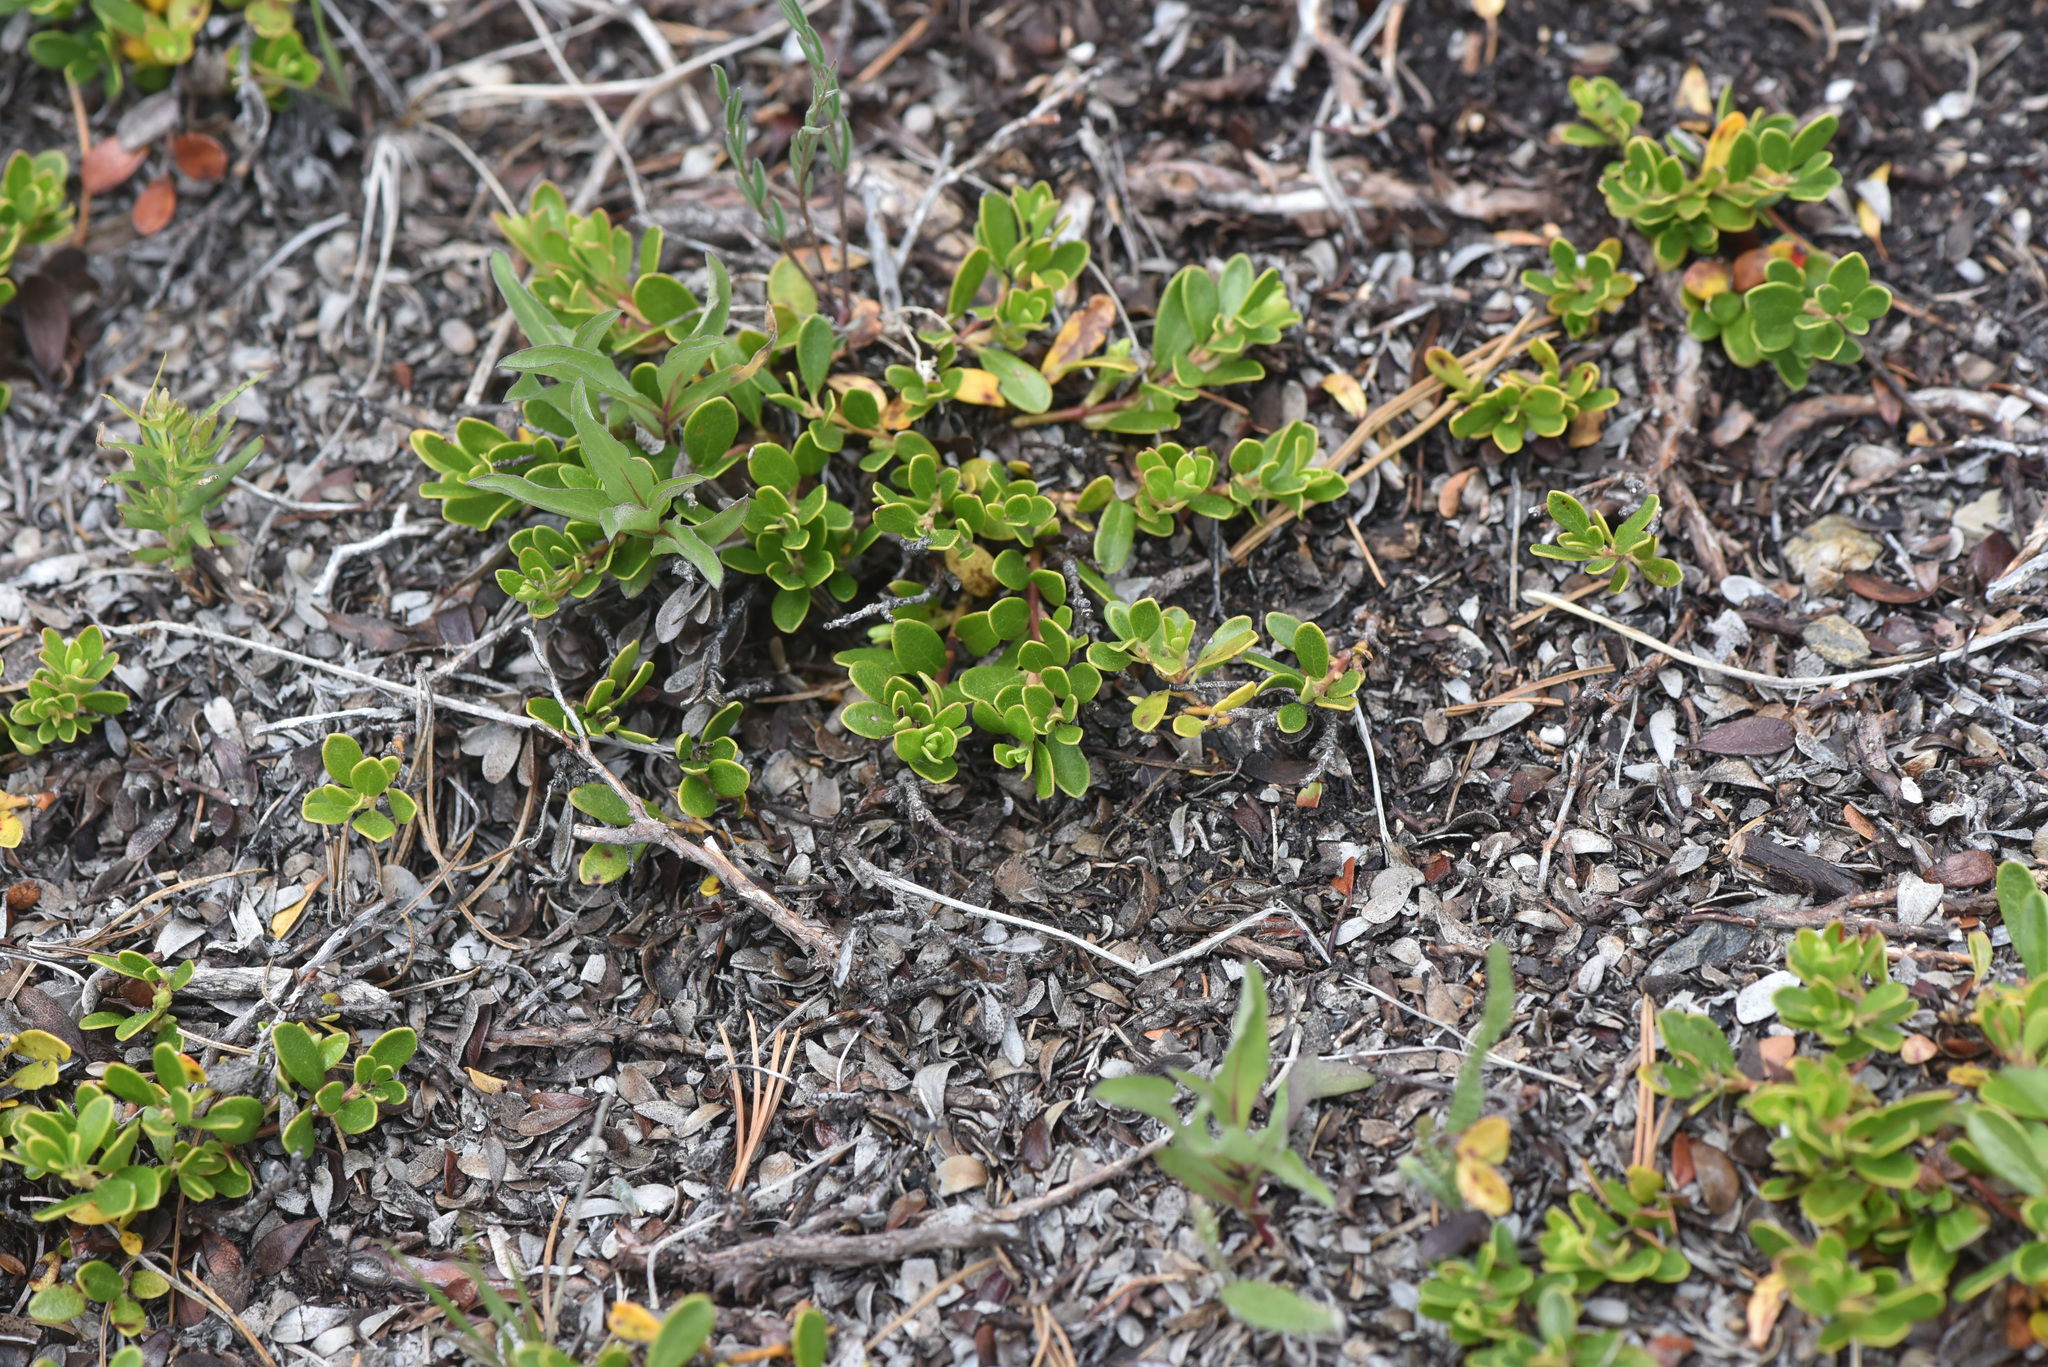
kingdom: Plantae
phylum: Tracheophyta
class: Magnoliopsida
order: Ericales
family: Ericaceae
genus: Arctostaphylos
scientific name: Arctostaphylos uva-ursi
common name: Bearberry
